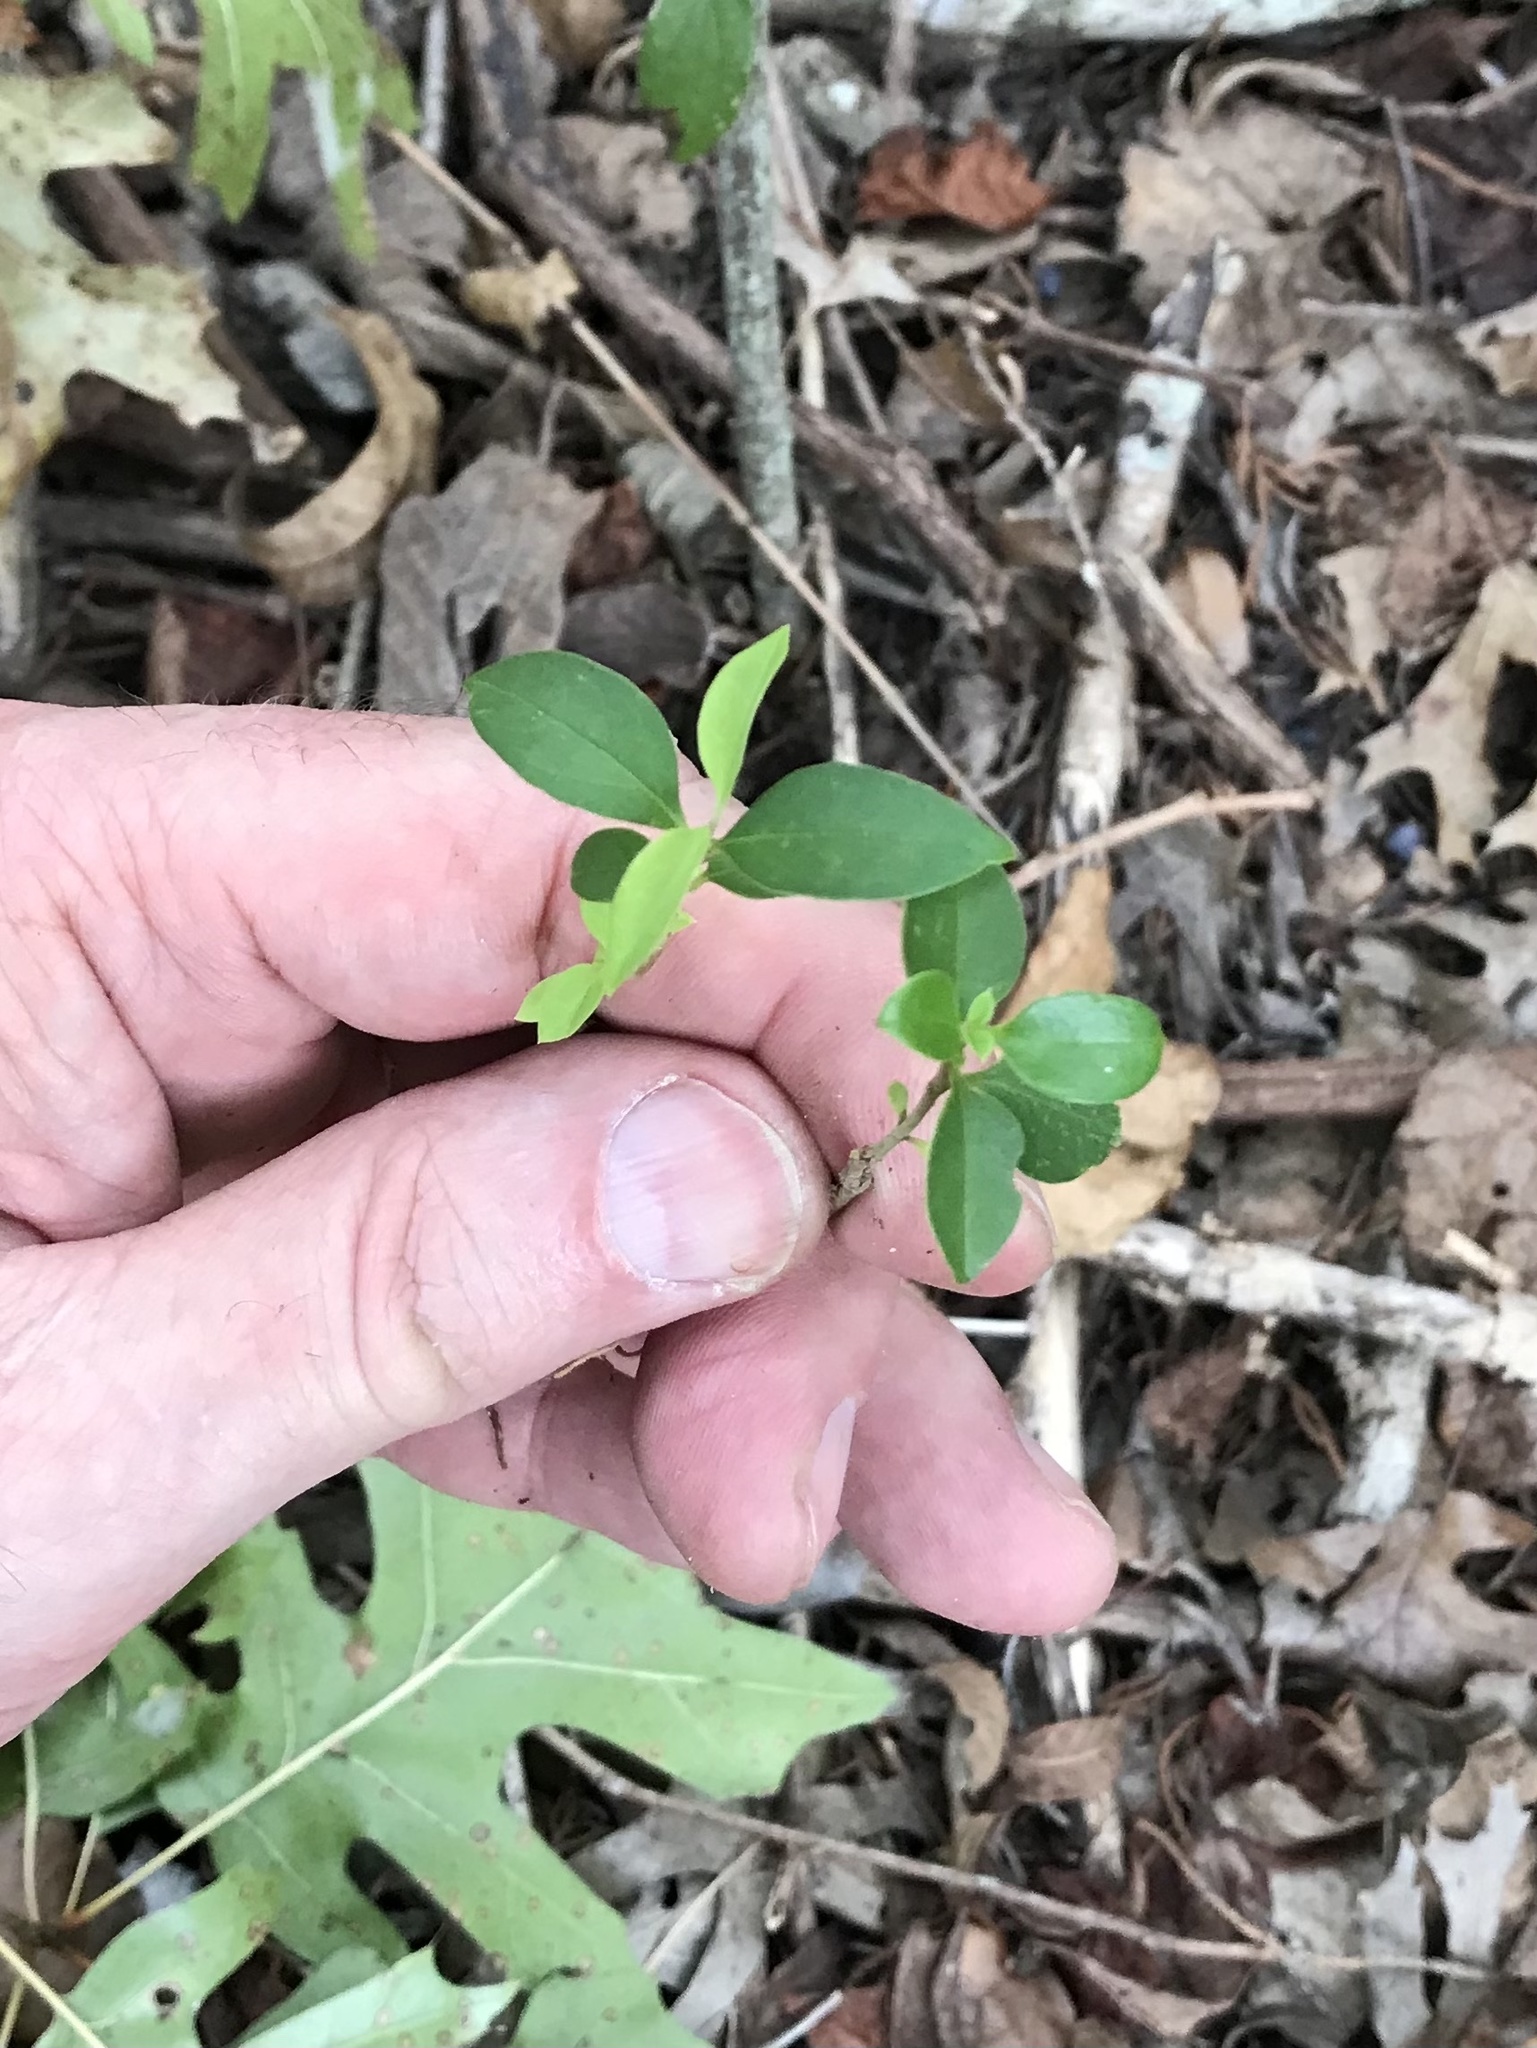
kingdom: Plantae
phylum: Tracheophyta
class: Magnoliopsida
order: Lamiales
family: Oleaceae
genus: Ligustrum
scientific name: Ligustrum lucidum
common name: Glossy privet
